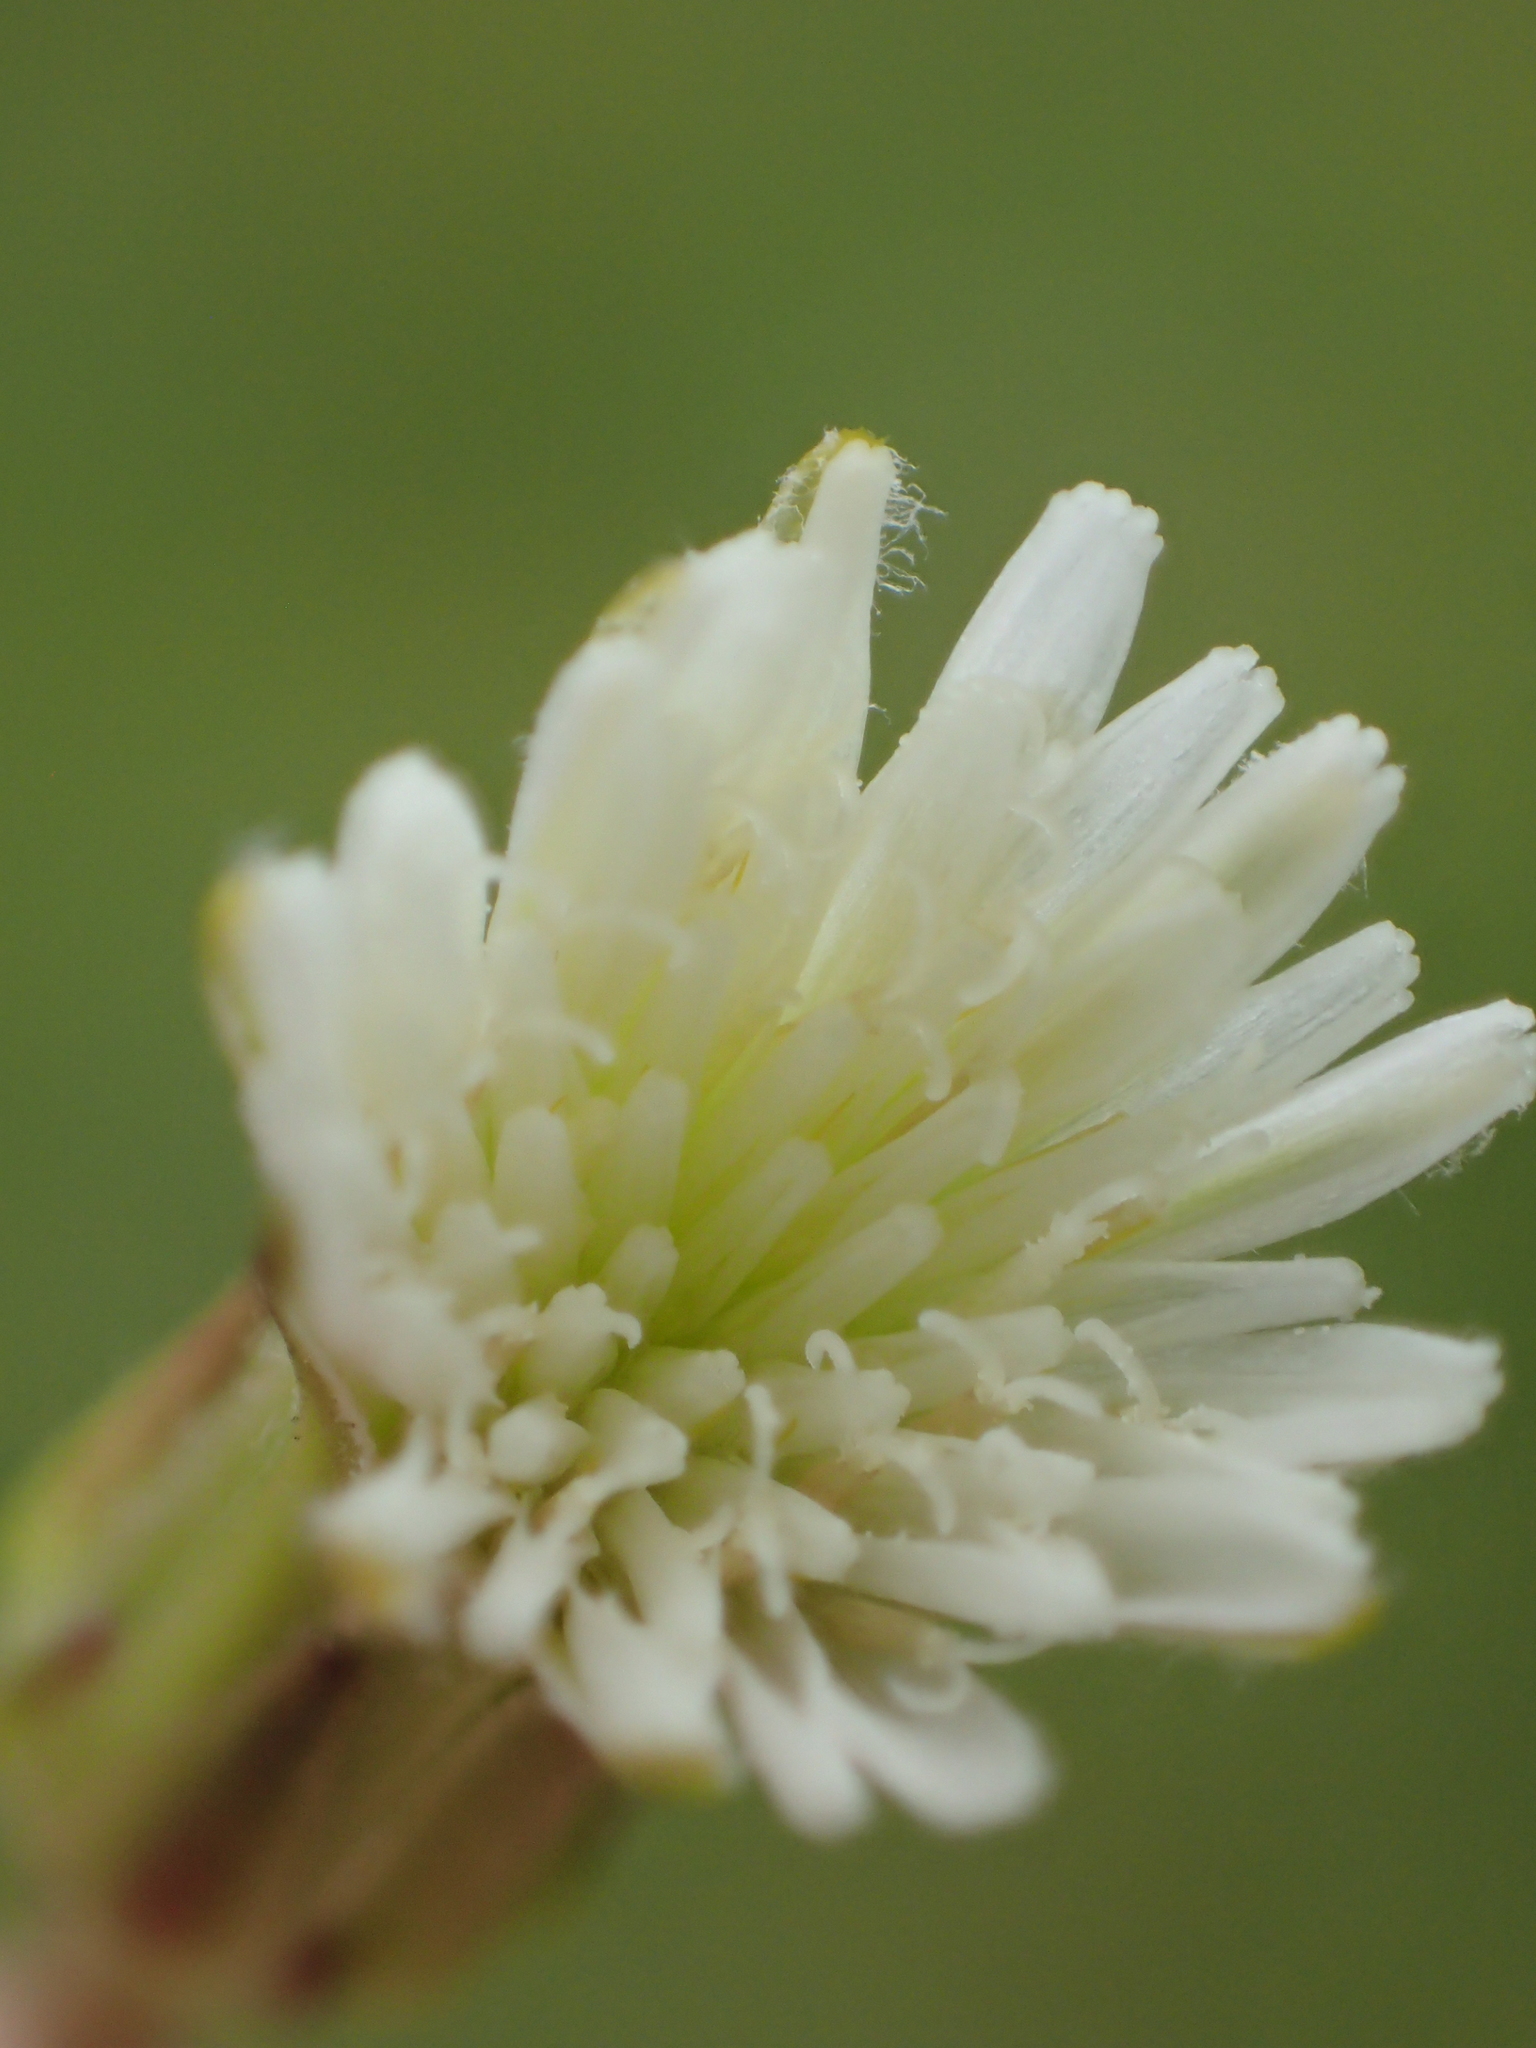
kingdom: Plantae
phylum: Tracheophyta
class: Magnoliopsida
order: Asterales
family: Asteraceae
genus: Hypochaeris
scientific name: Hypochaeris albiflora
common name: White flatweed
